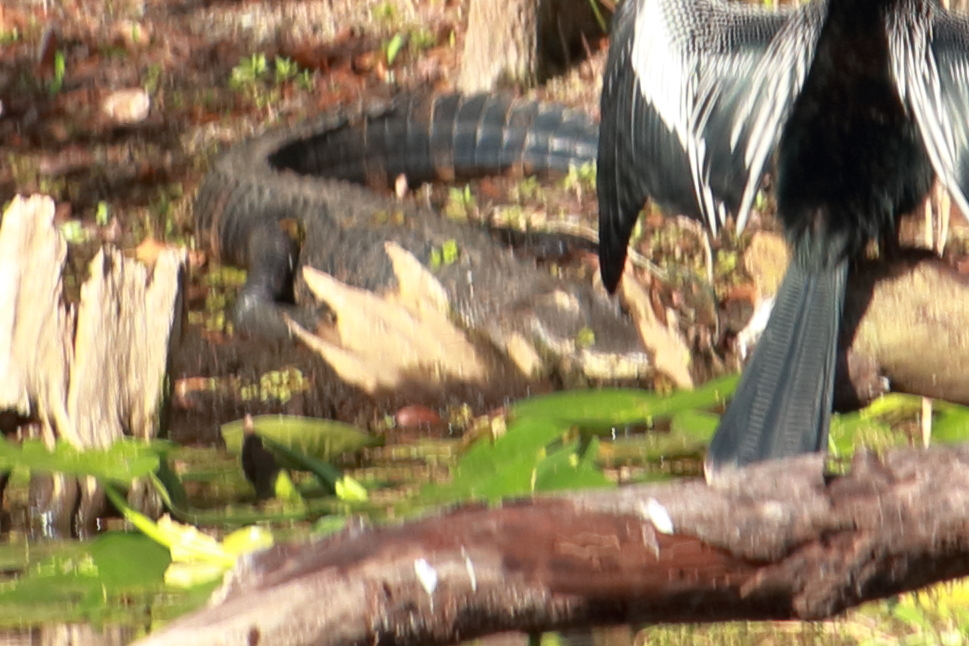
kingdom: Animalia
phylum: Chordata
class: Crocodylia
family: Alligatoridae
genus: Alligator
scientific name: Alligator mississippiensis
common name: American alligator
